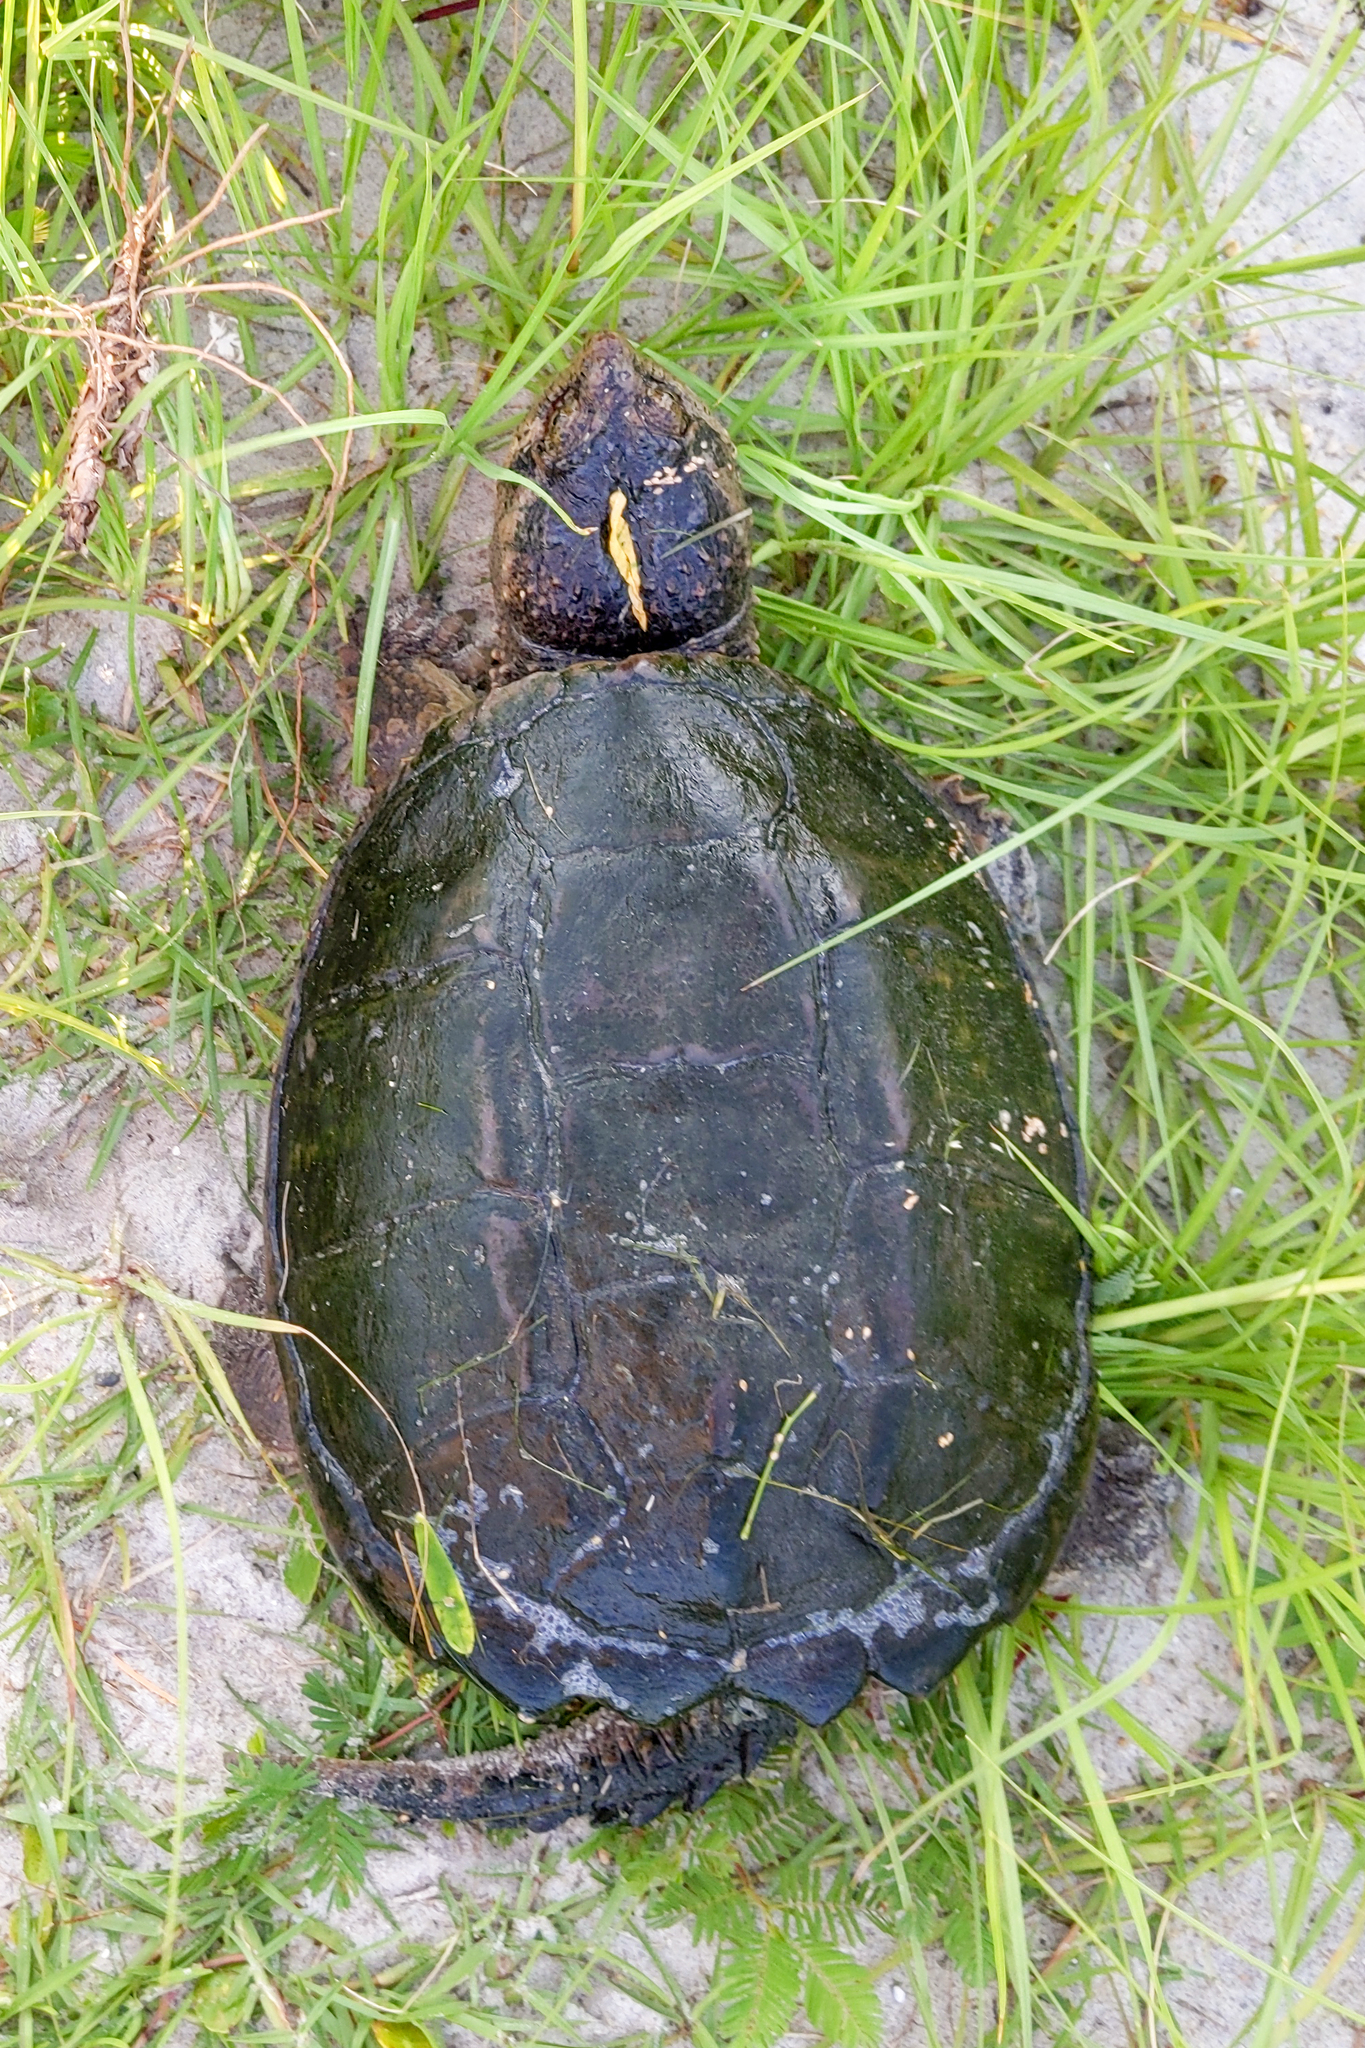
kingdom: Animalia
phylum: Chordata
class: Testudines
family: Chelydridae
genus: Chelydra
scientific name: Chelydra serpentina
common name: Common snapping turtle
